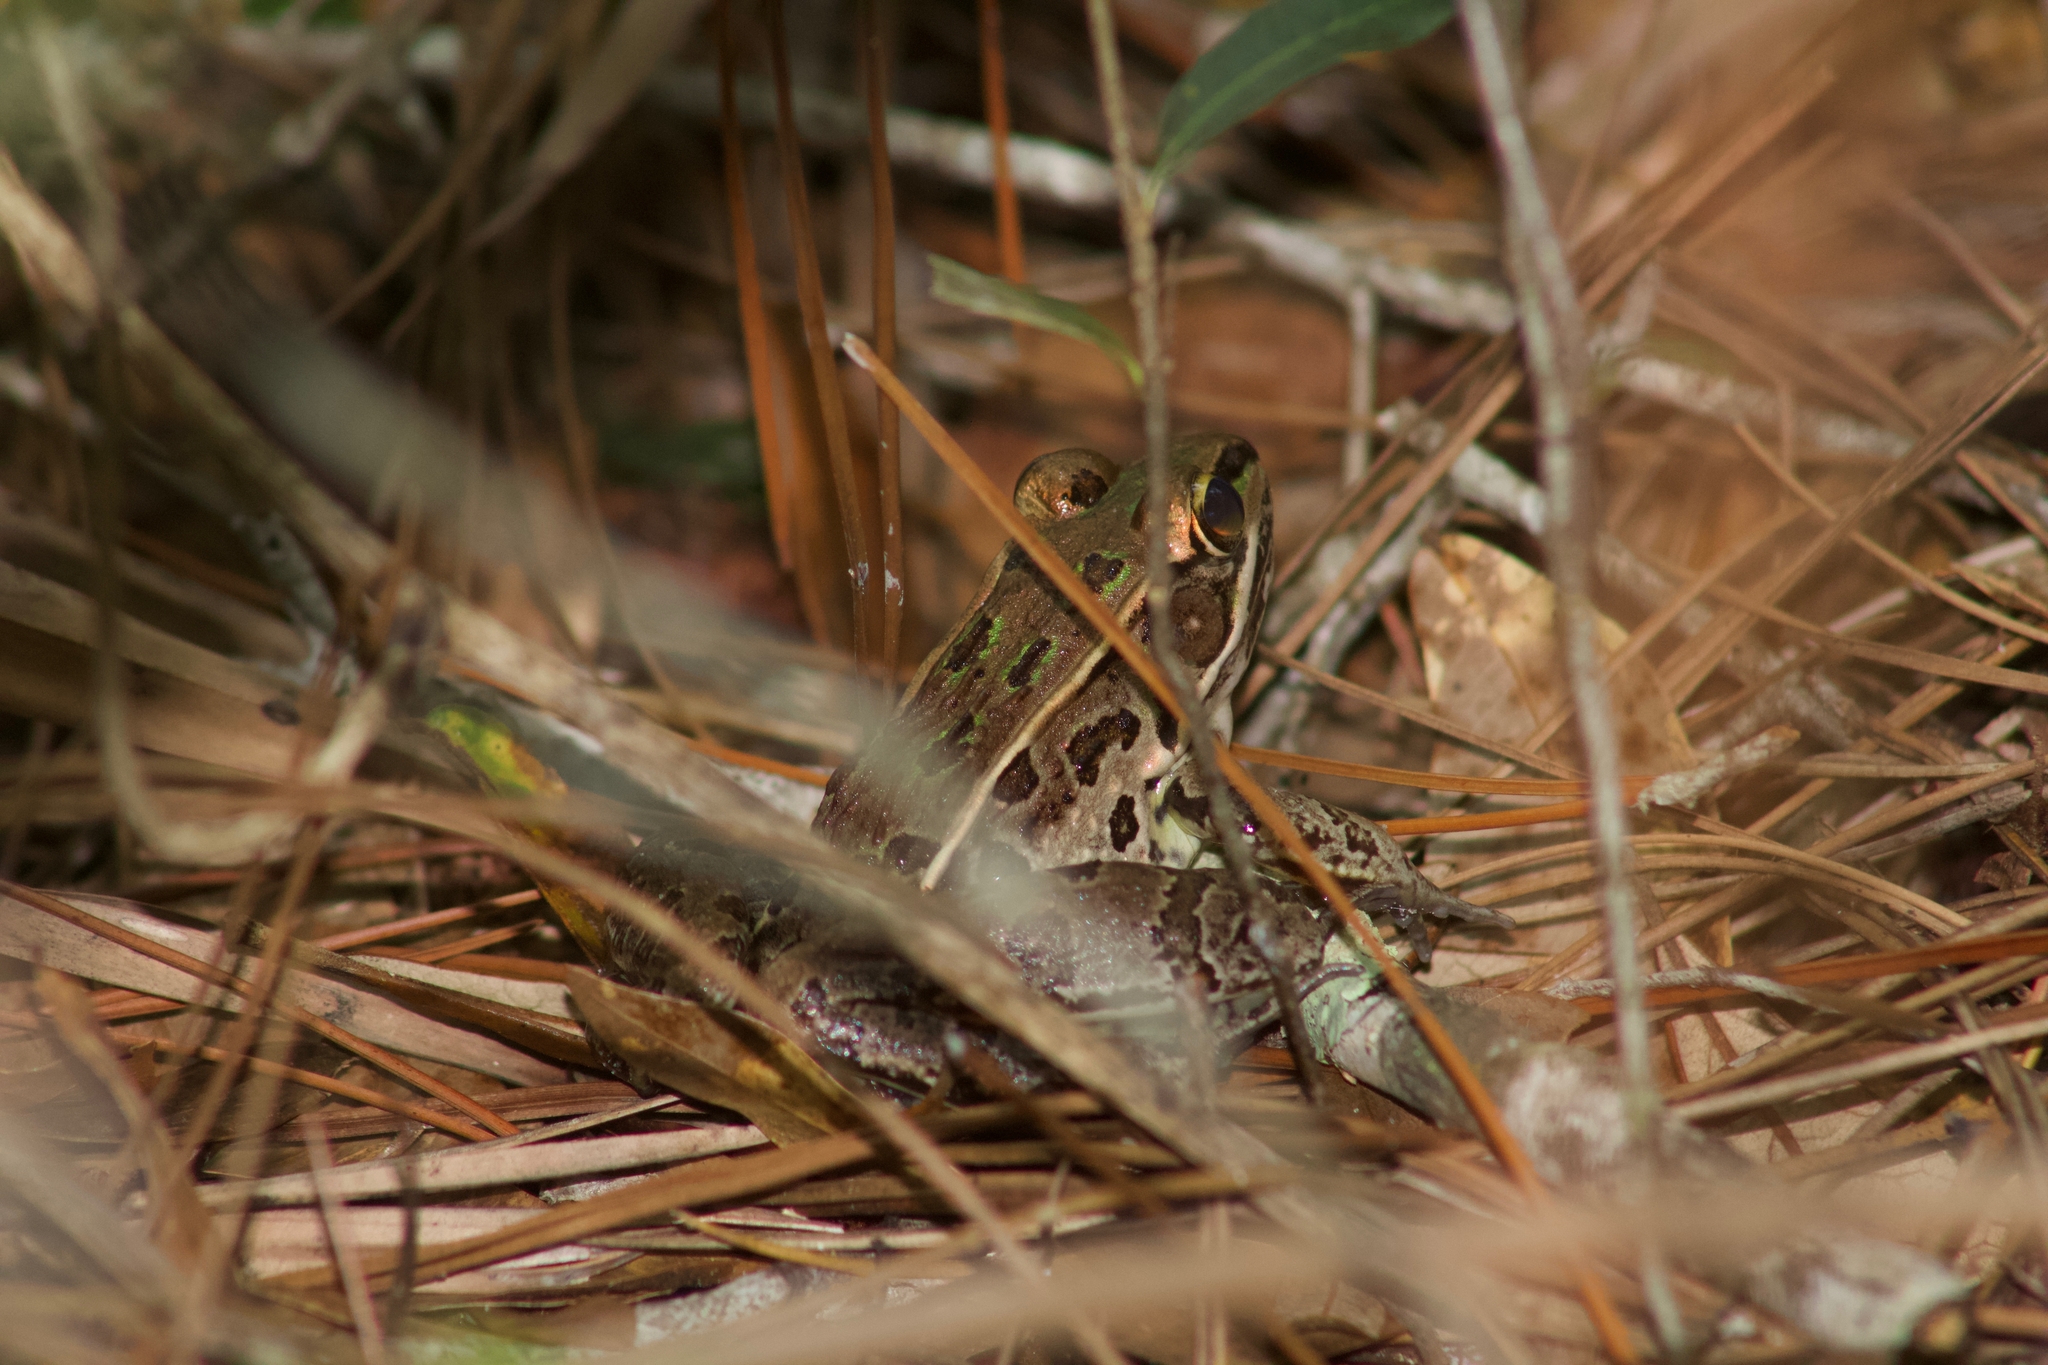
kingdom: Animalia
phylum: Chordata
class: Amphibia
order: Anura
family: Ranidae
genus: Lithobates
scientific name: Lithobates sphenocephalus
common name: Southern leopard frog
